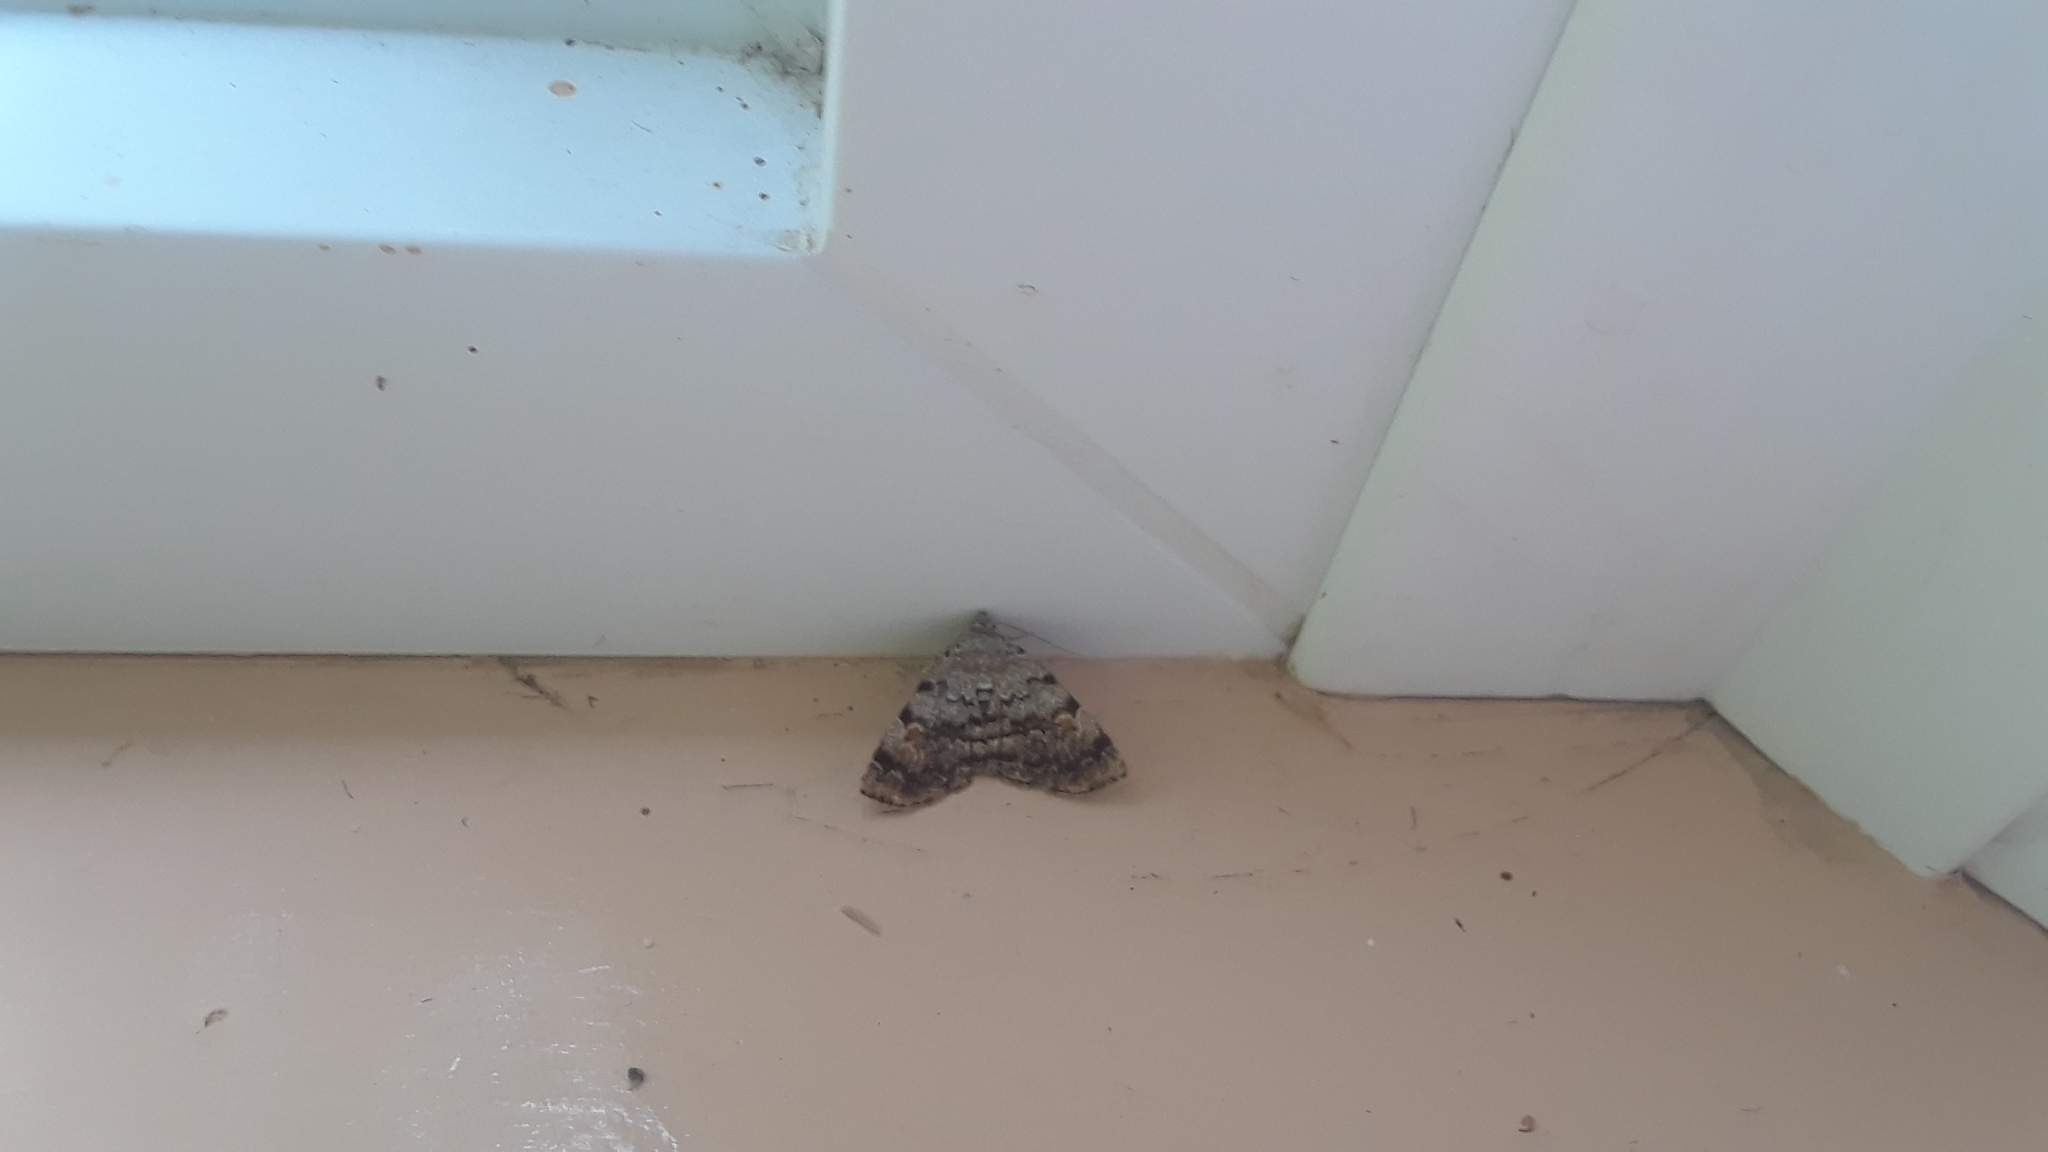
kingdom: Animalia
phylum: Arthropoda
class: Insecta
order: Lepidoptera
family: Erebidae
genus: Idia
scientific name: Idia americalis
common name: American idia moth
